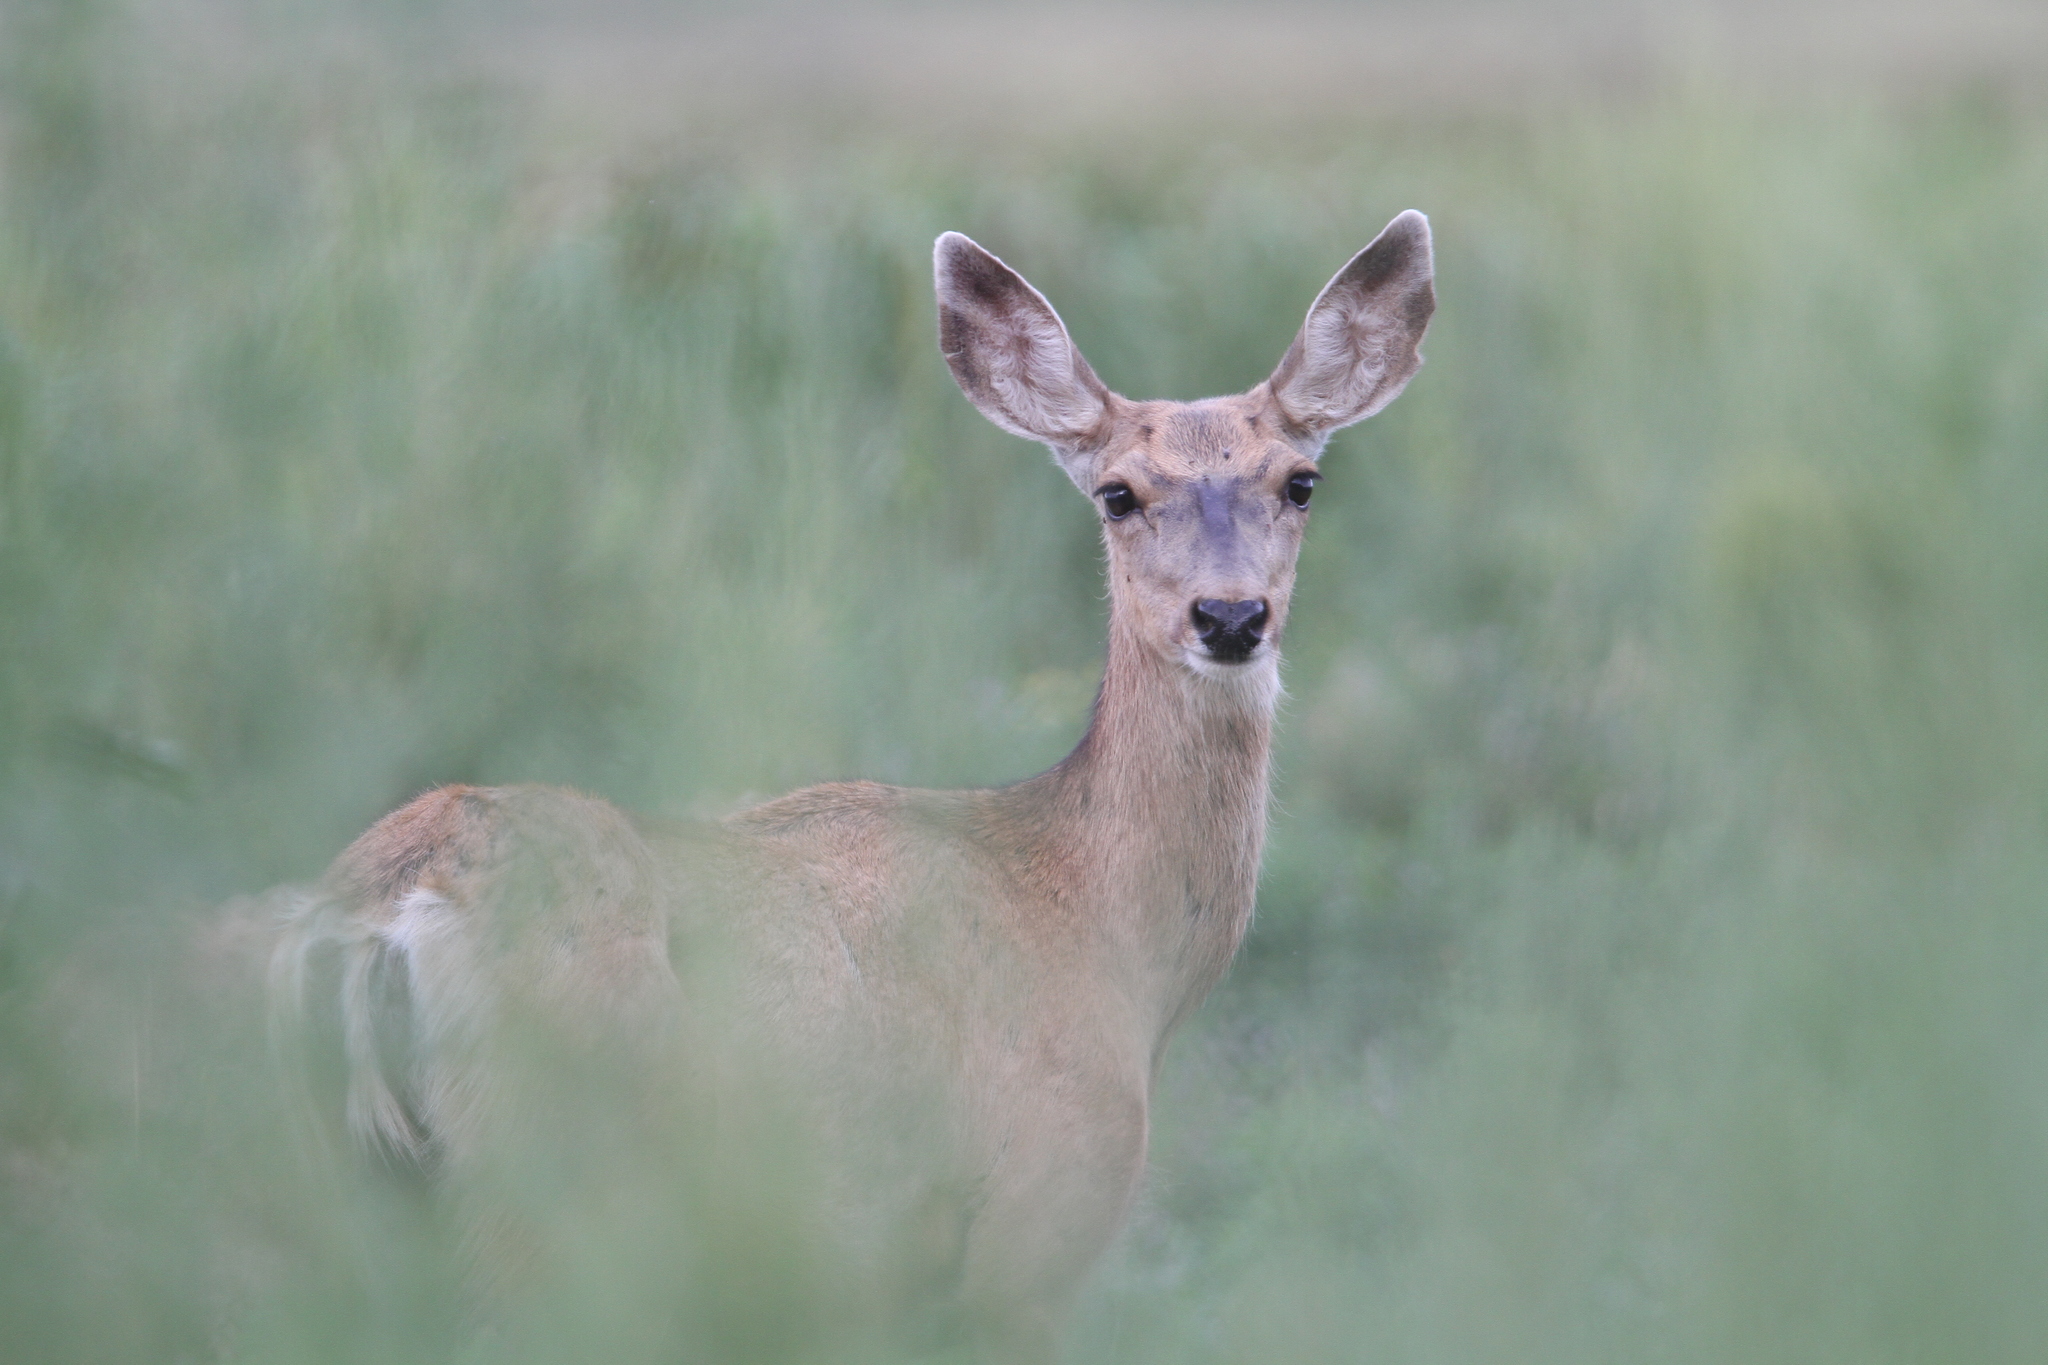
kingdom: Animalia
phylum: Chordata
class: Mammalia
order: Artiodactyla
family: Cervidae
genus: Odocoileus
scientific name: Odocoileus hemionus
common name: Mule deer
